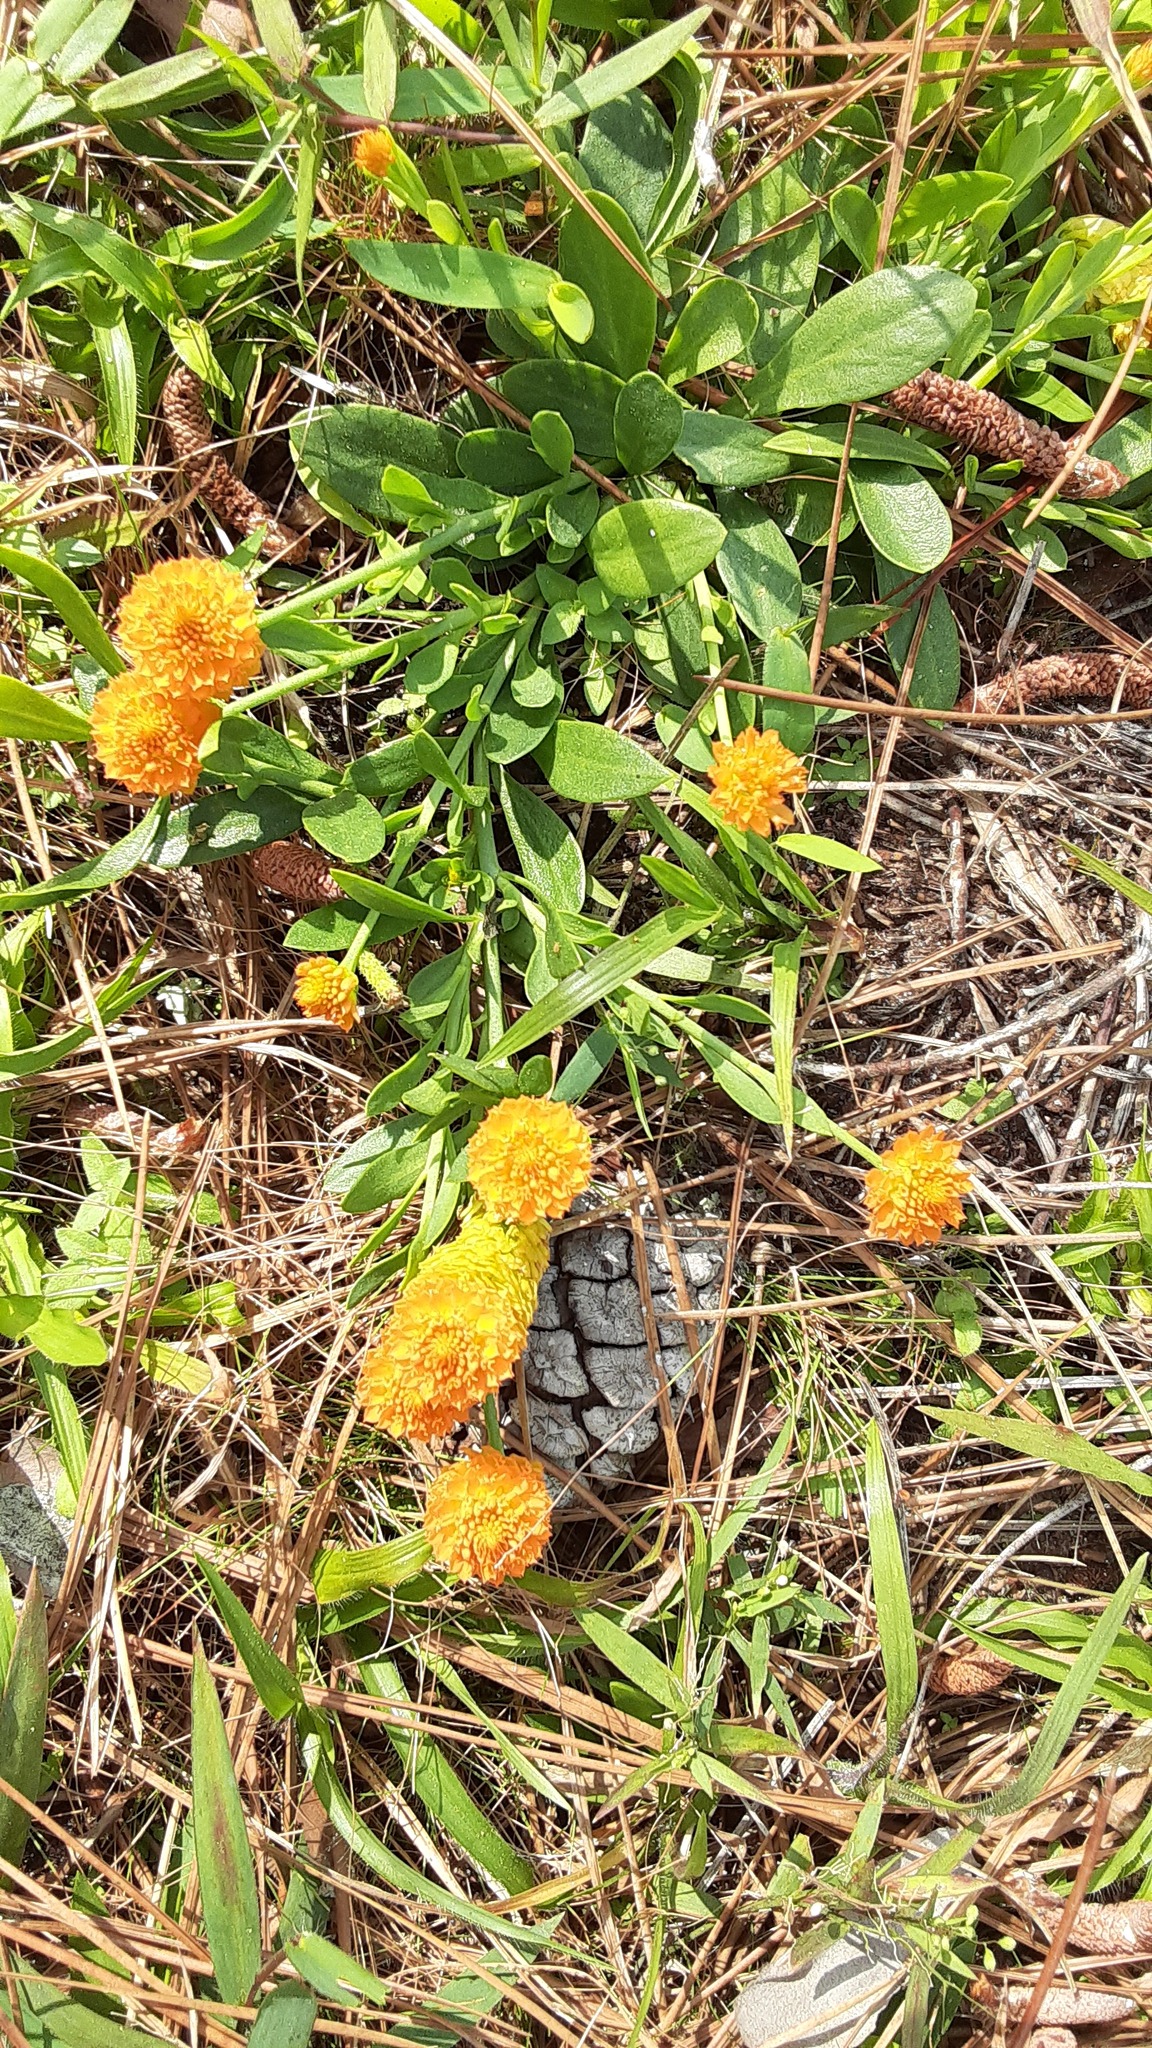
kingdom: Plantae
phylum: Tracheophyta
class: Magnoliopsida
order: Fabales
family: Polygalaceae
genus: Polygala
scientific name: Polygala lutea
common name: Orange milkwort
